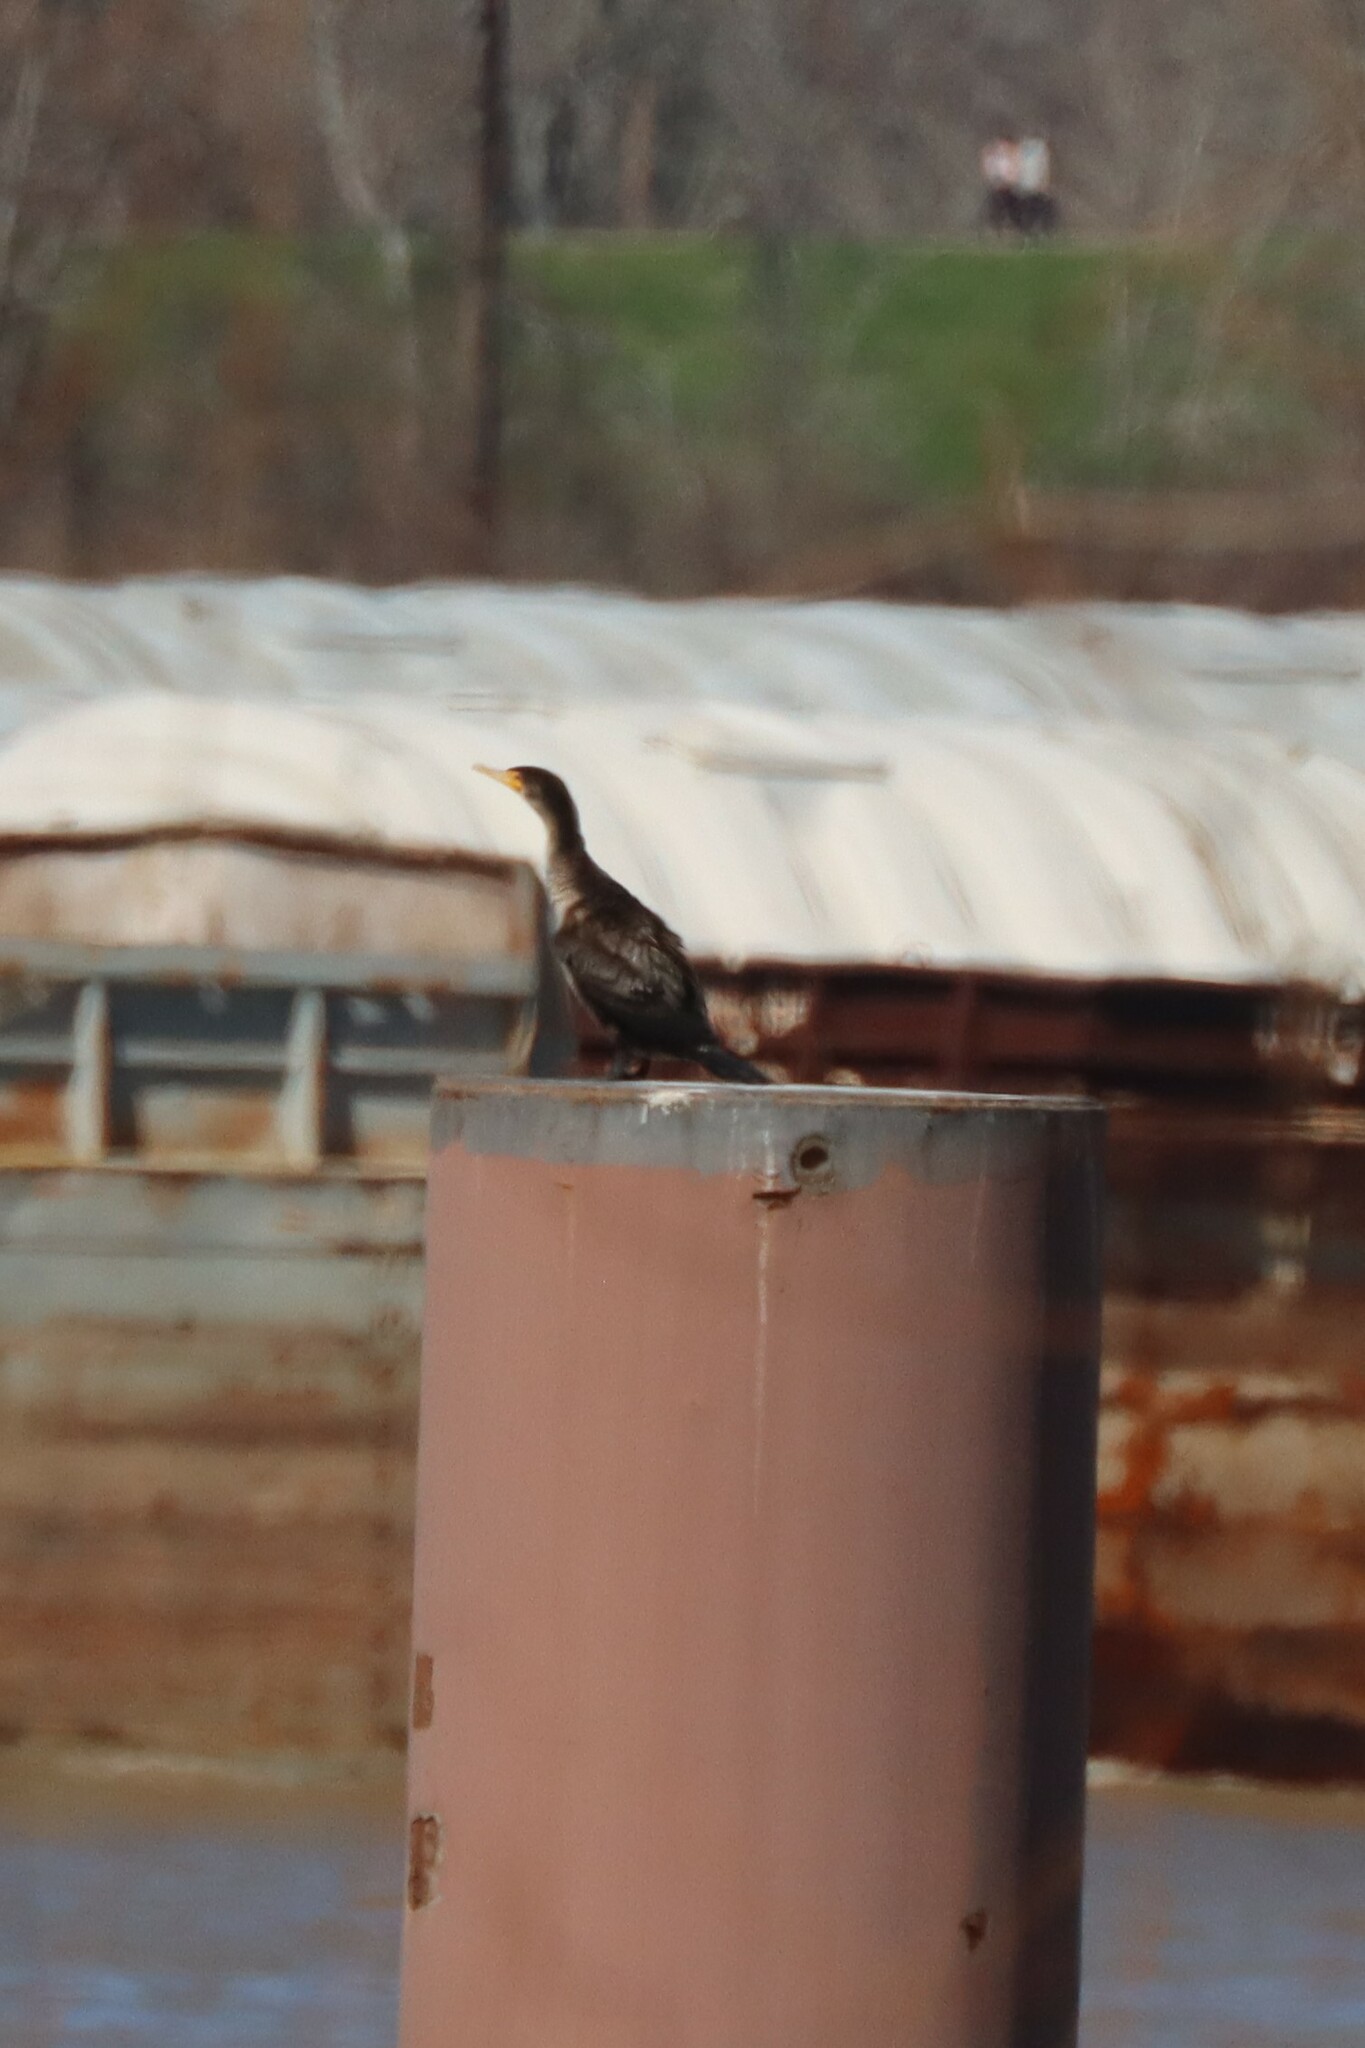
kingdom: Animalia
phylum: Chordata
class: Aves
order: Suliformes
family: Phalacrocoracidae
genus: Phalacrocorax
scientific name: Phalacrocorax auritus
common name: Double-crested cormorant
